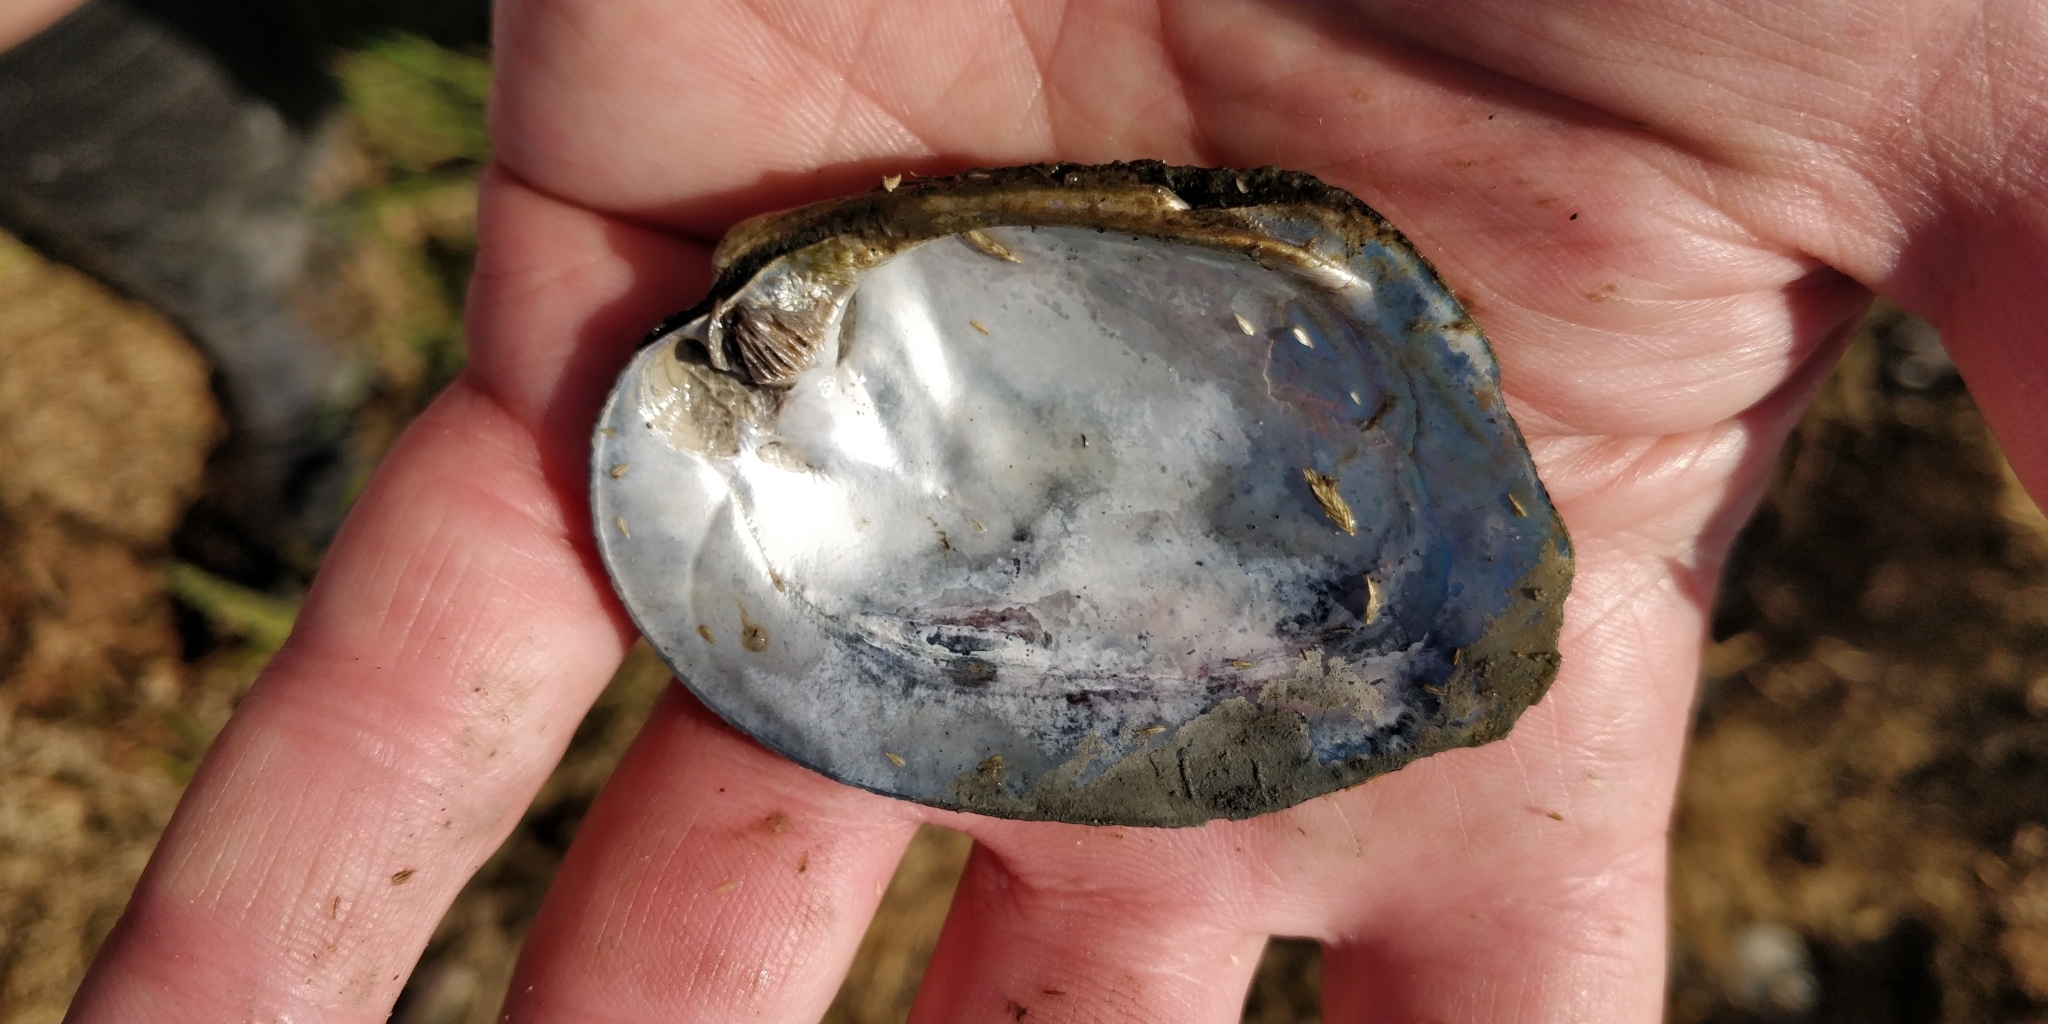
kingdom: Animalia
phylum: Mollusca
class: Bivalvia
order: Unionida
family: Unionidae
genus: Amblema
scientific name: Amblema plicata
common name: Threeridge
